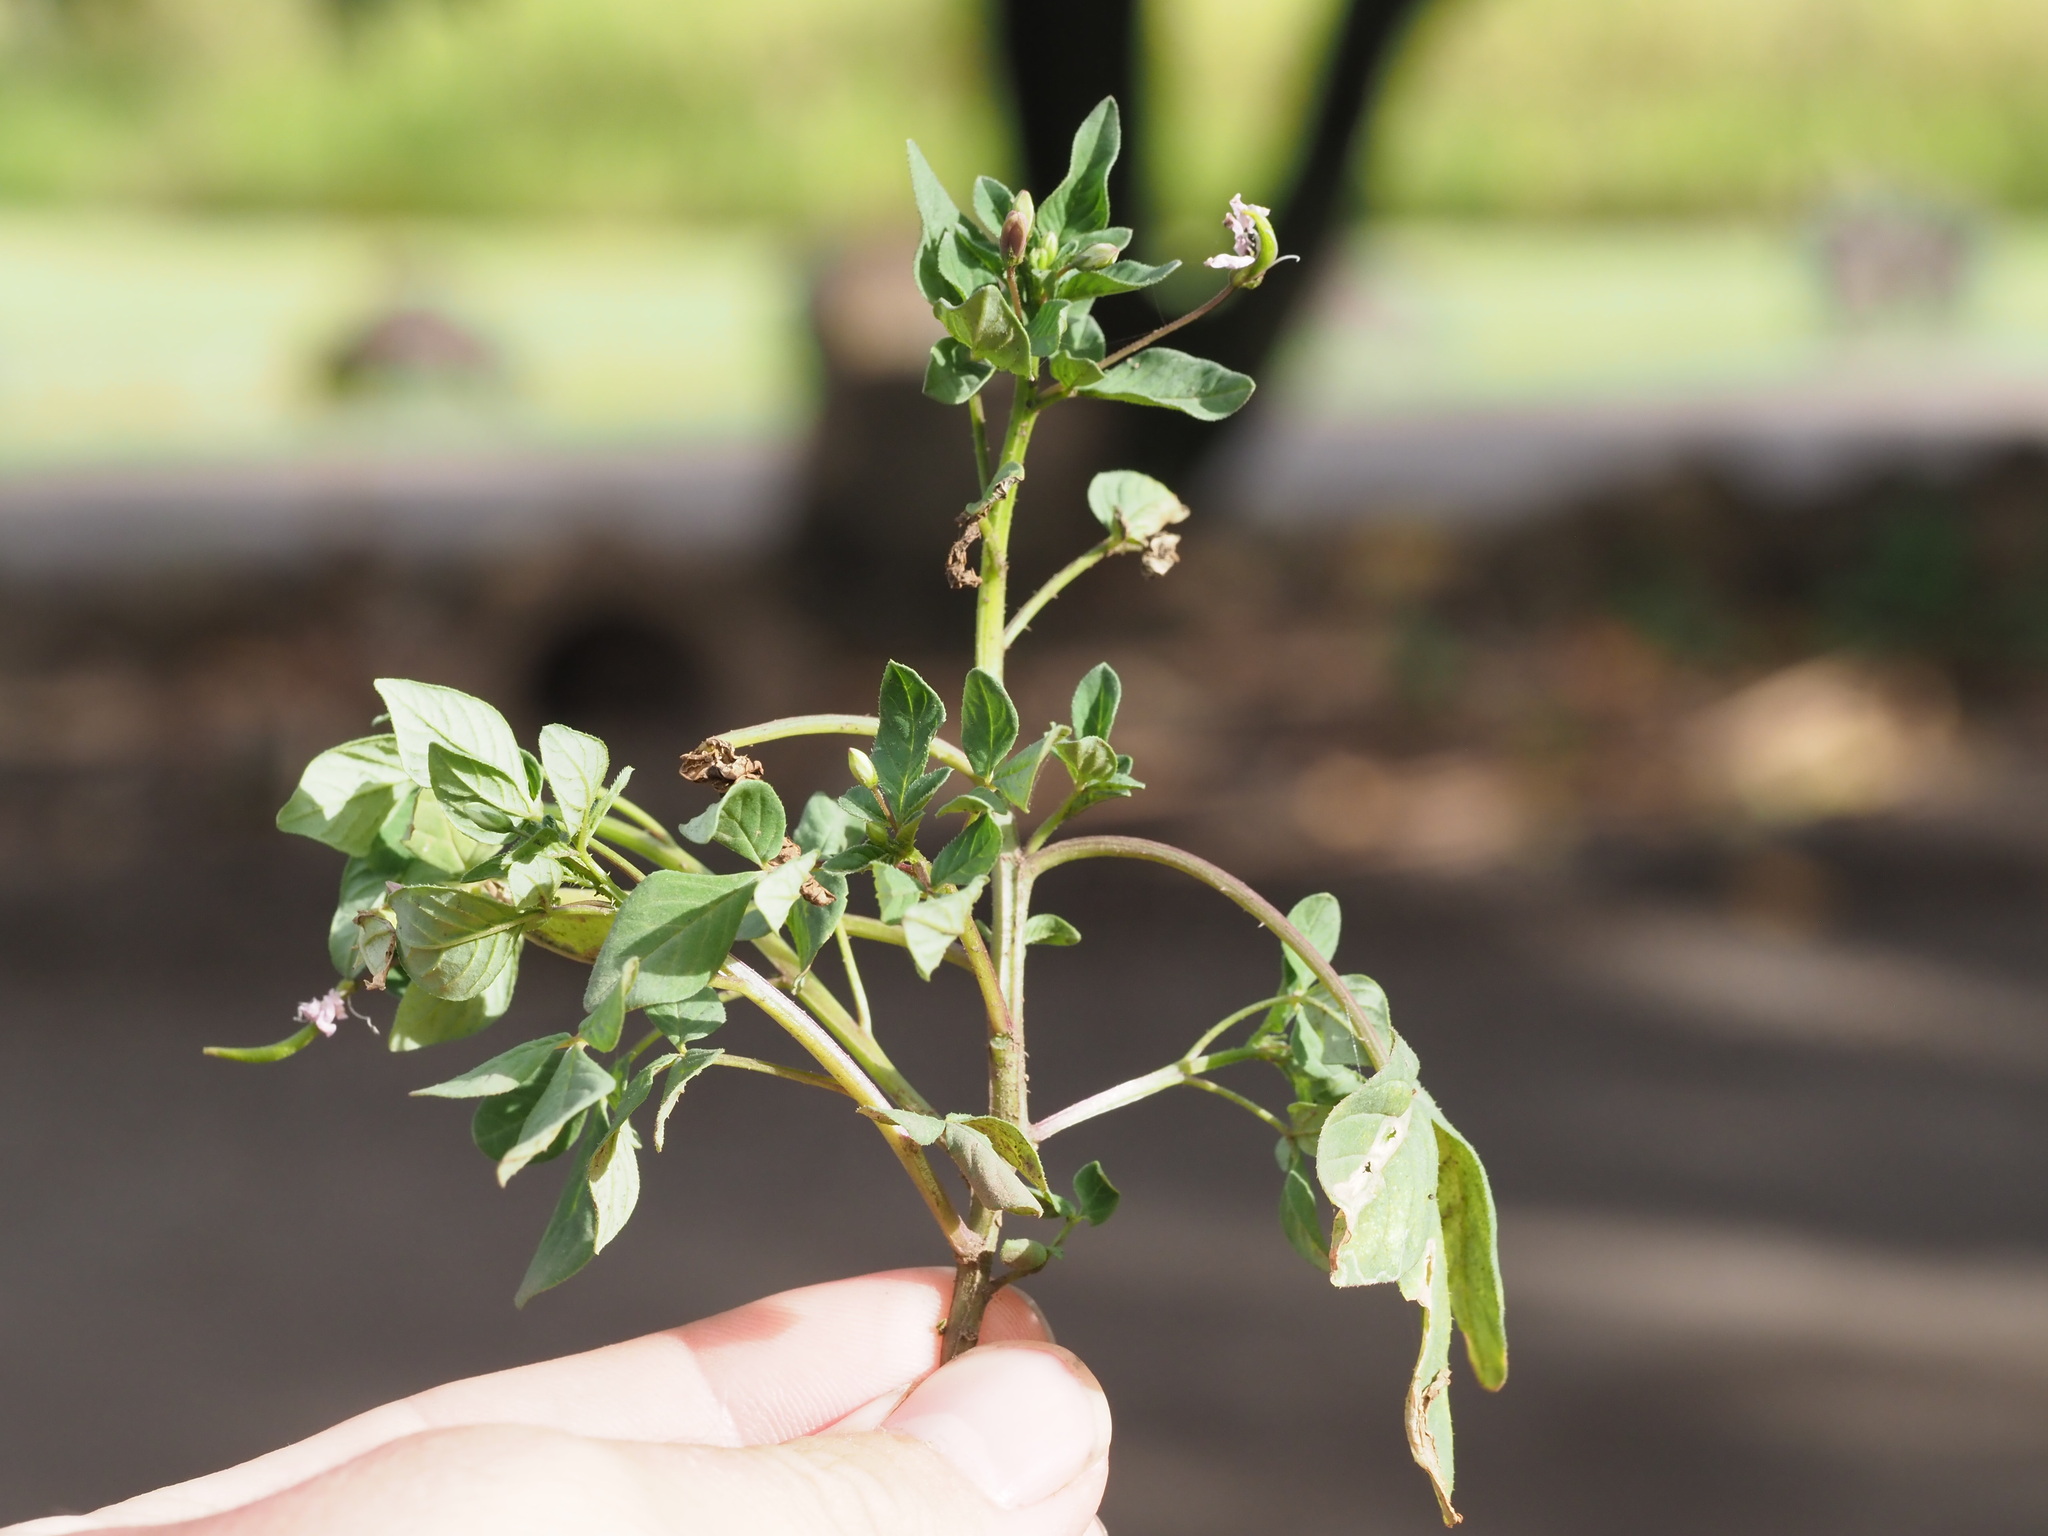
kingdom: Plantae
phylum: Tracheophyta
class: Magnoliopsida
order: Brassicales
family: Cleomaceae
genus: Sieruela
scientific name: Sieruela rutidosperma
